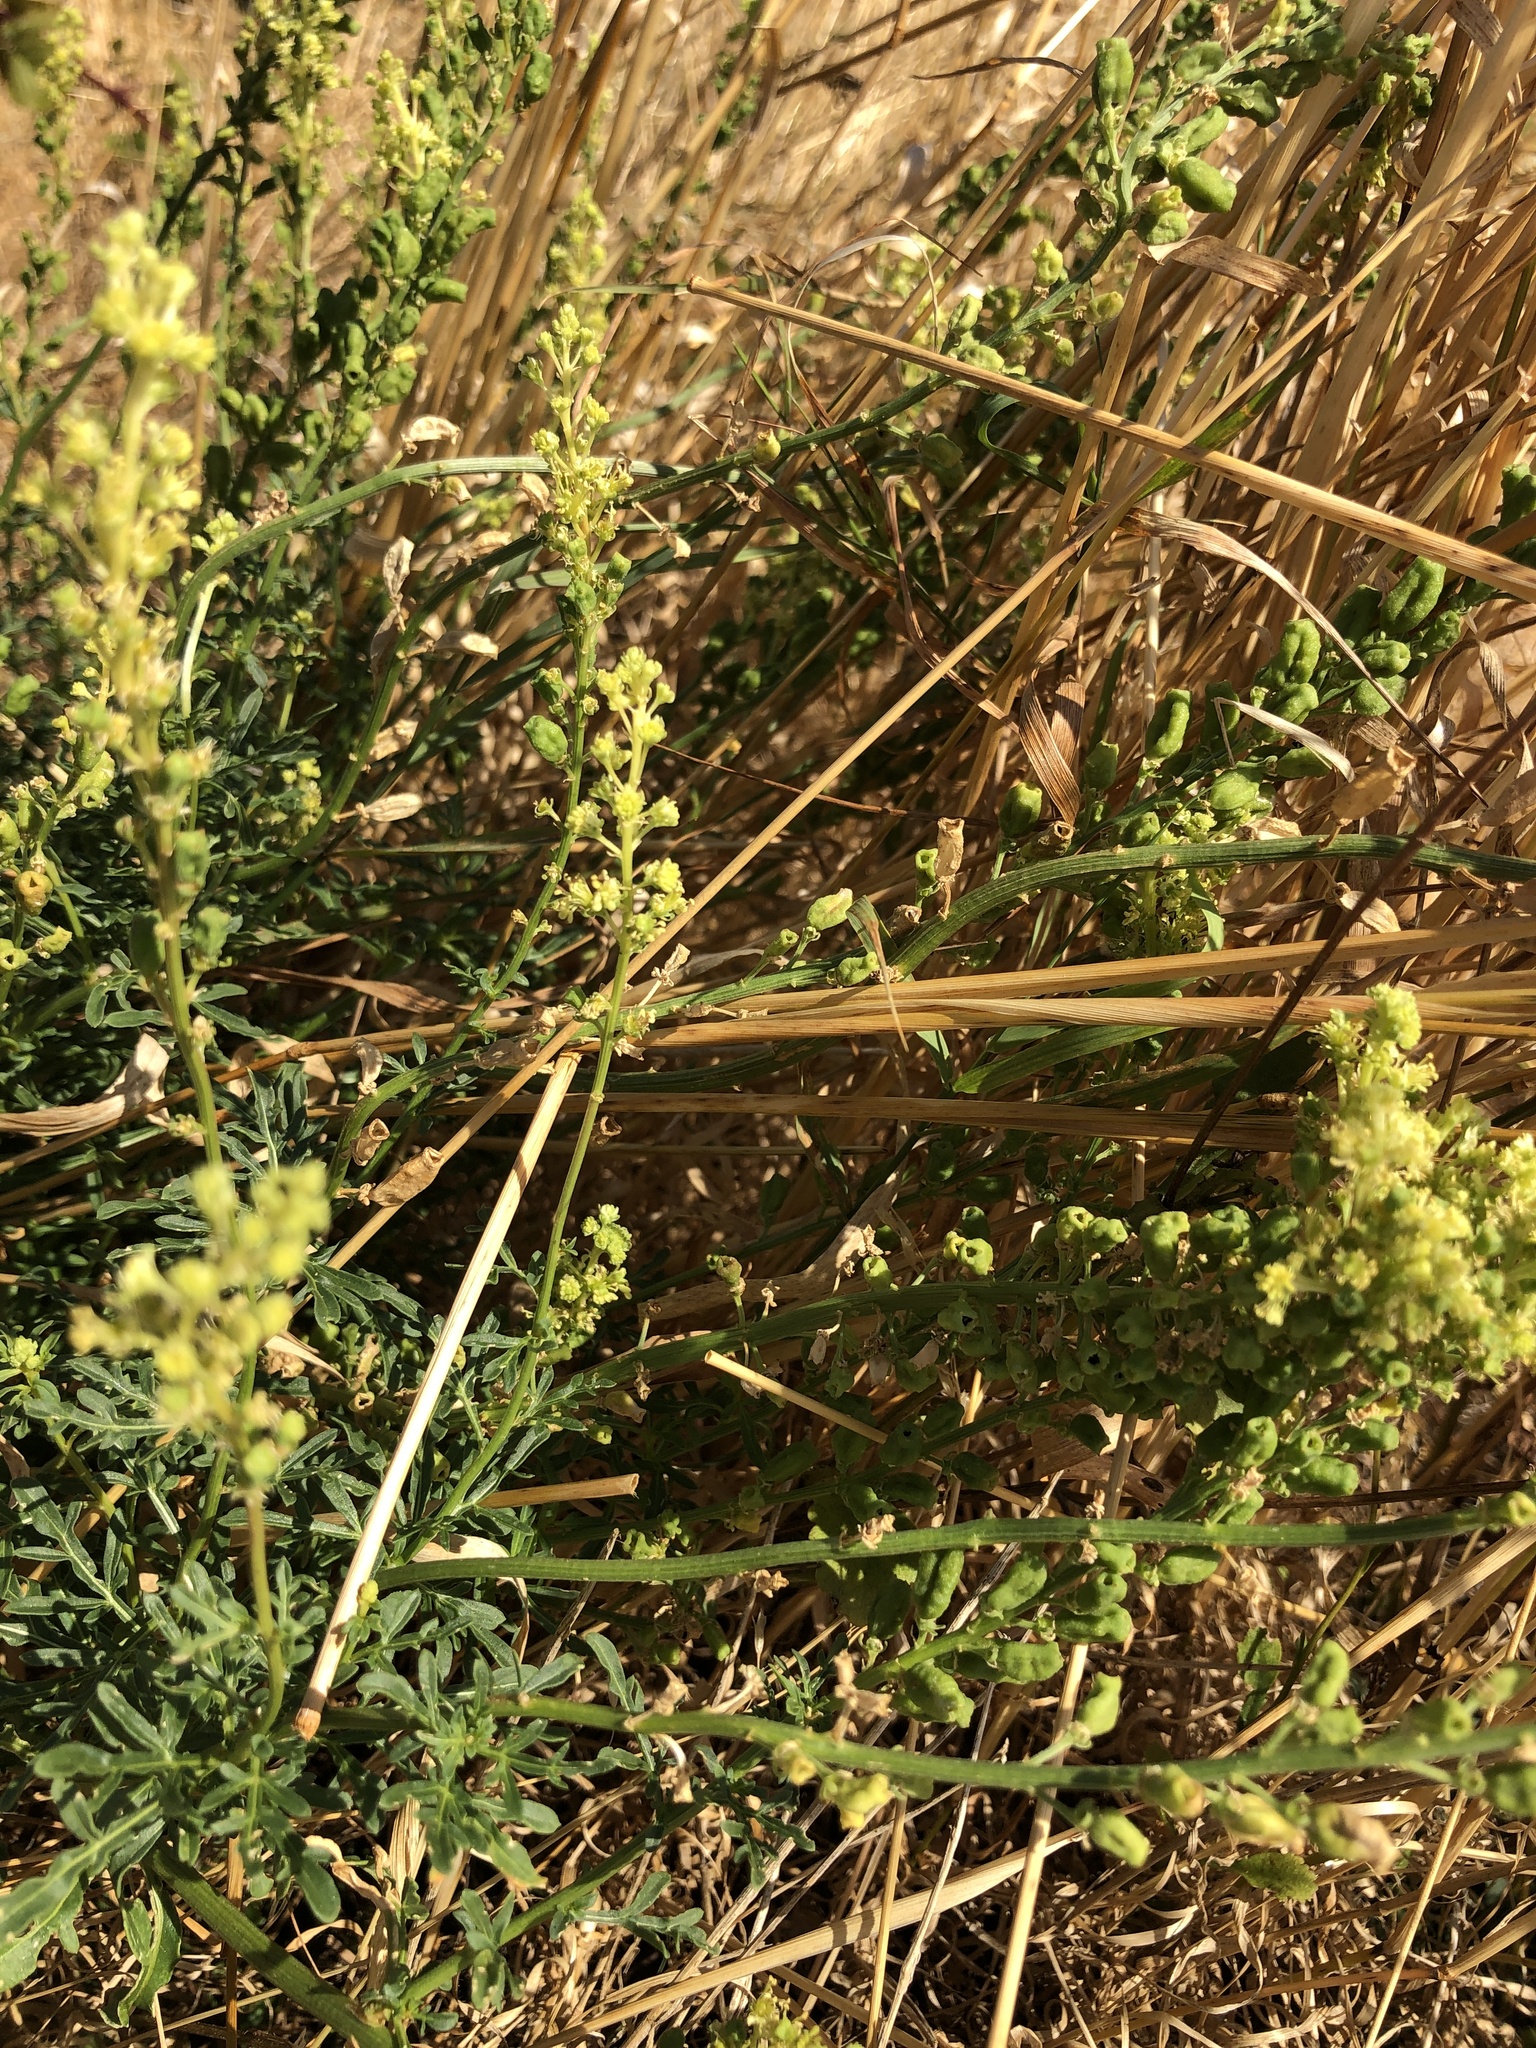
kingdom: Plantae
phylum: Tracheophyta
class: Magnoliopsida
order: Brassicales
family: Resedaceae
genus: Reseda
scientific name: Reseda lutea
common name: Wild mignonette
